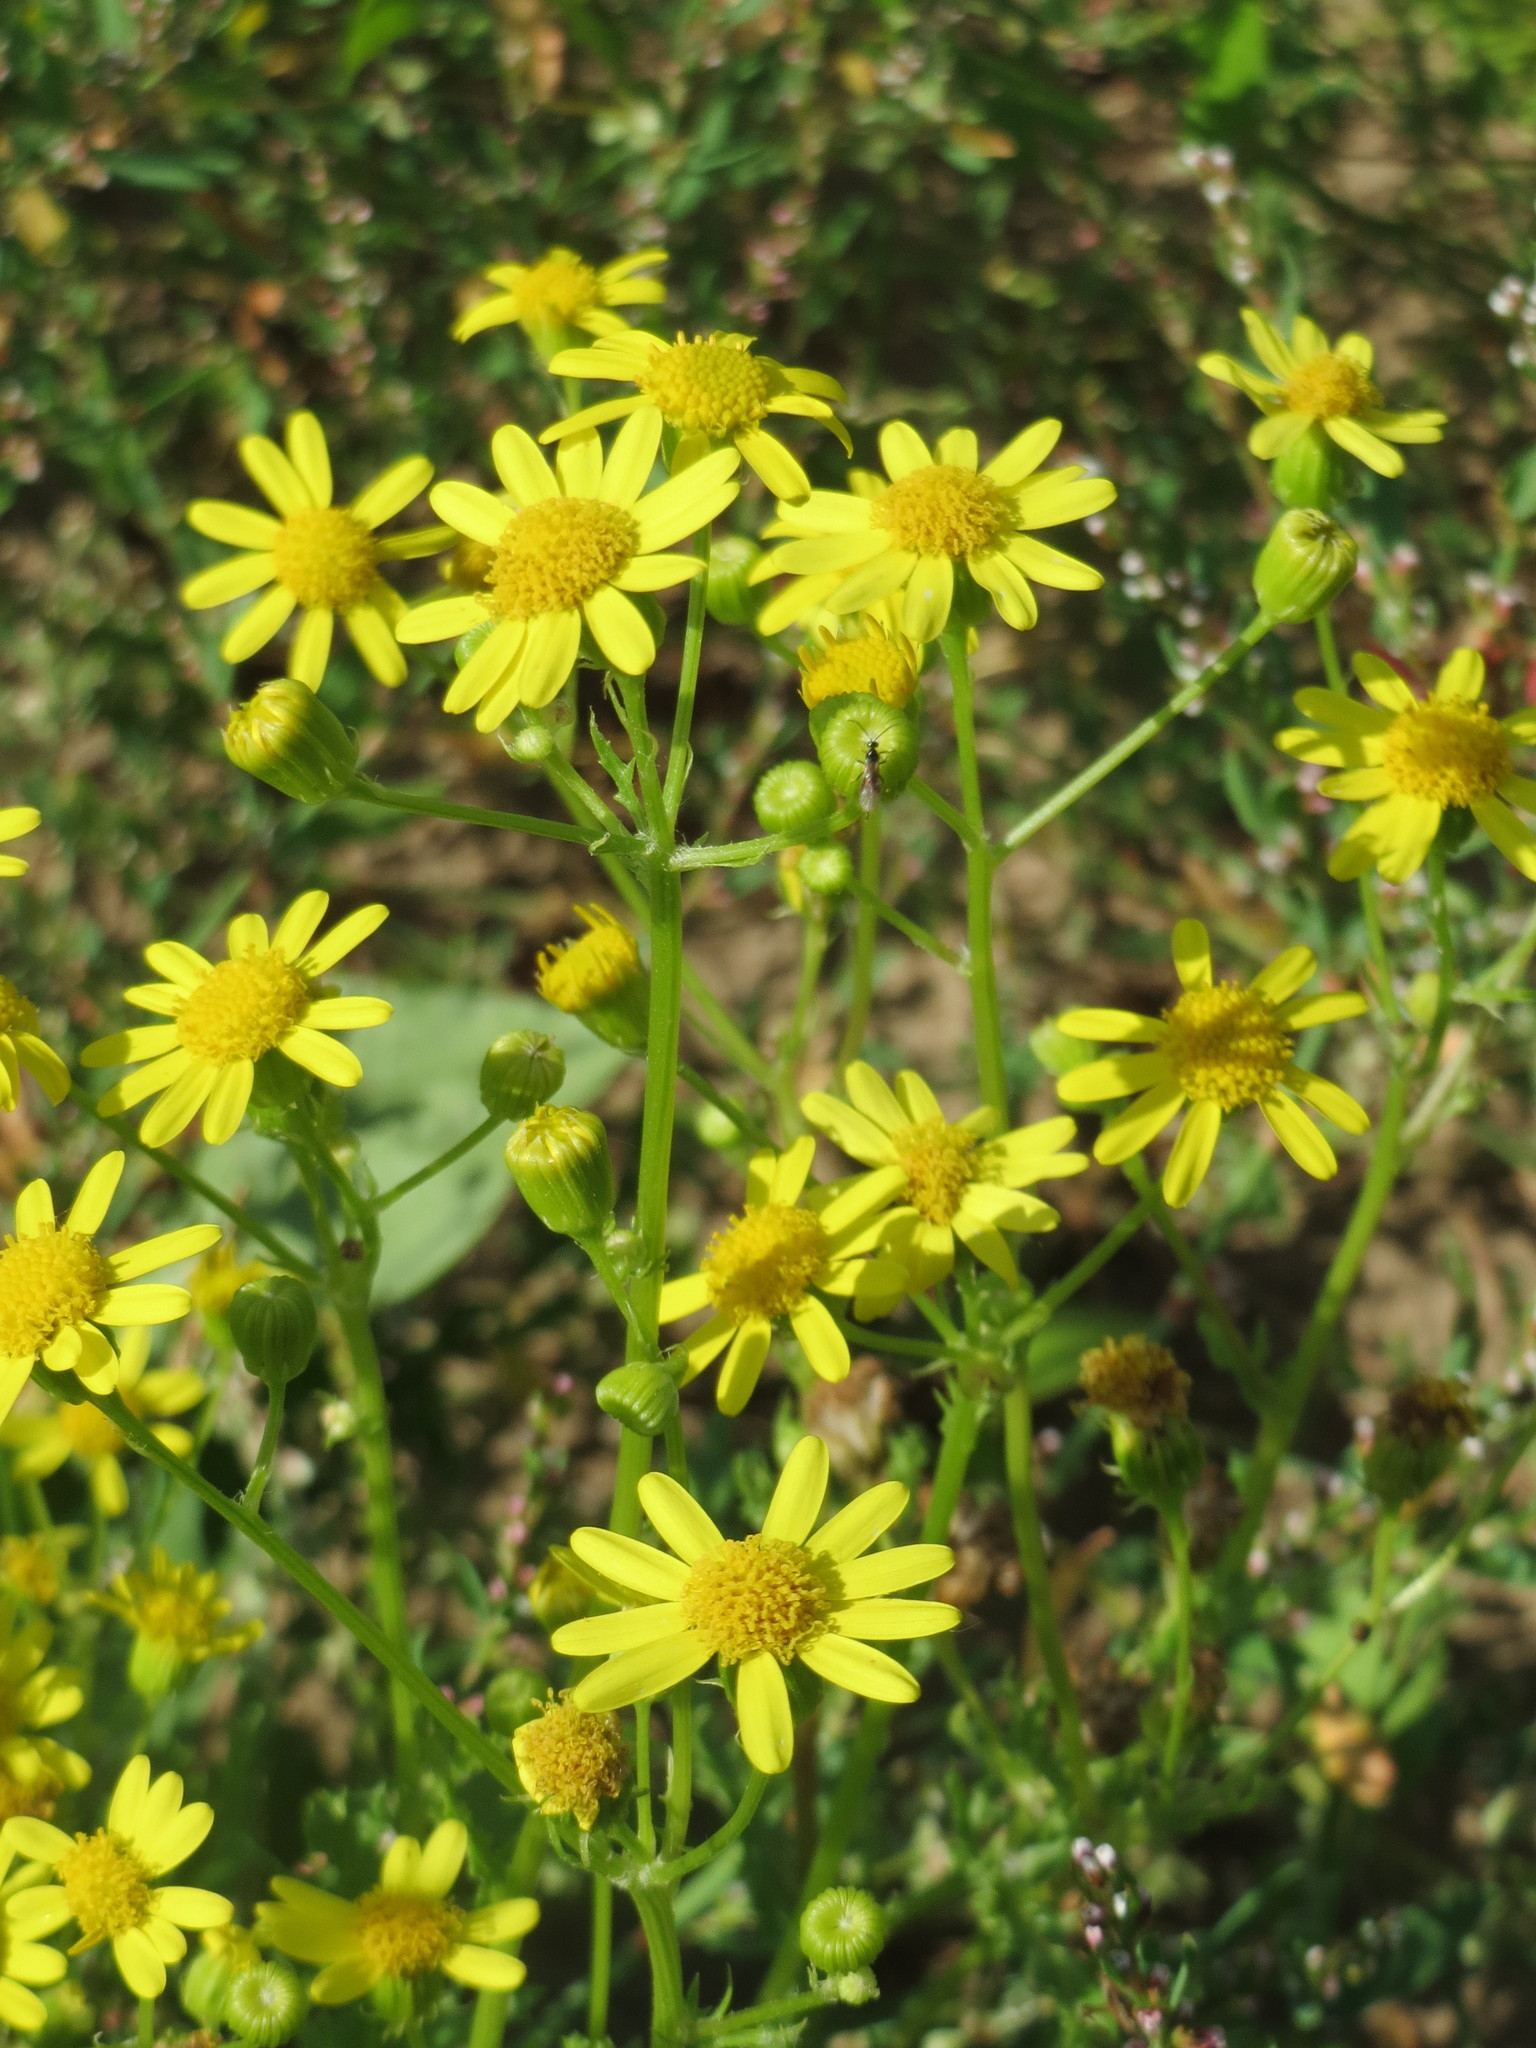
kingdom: Plantae
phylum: Tracheophyta
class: Magnoliopsida
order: Asterales
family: Asteraceae
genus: Jacobaea
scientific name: Jacobaea vulgaris
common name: Stinking willie
